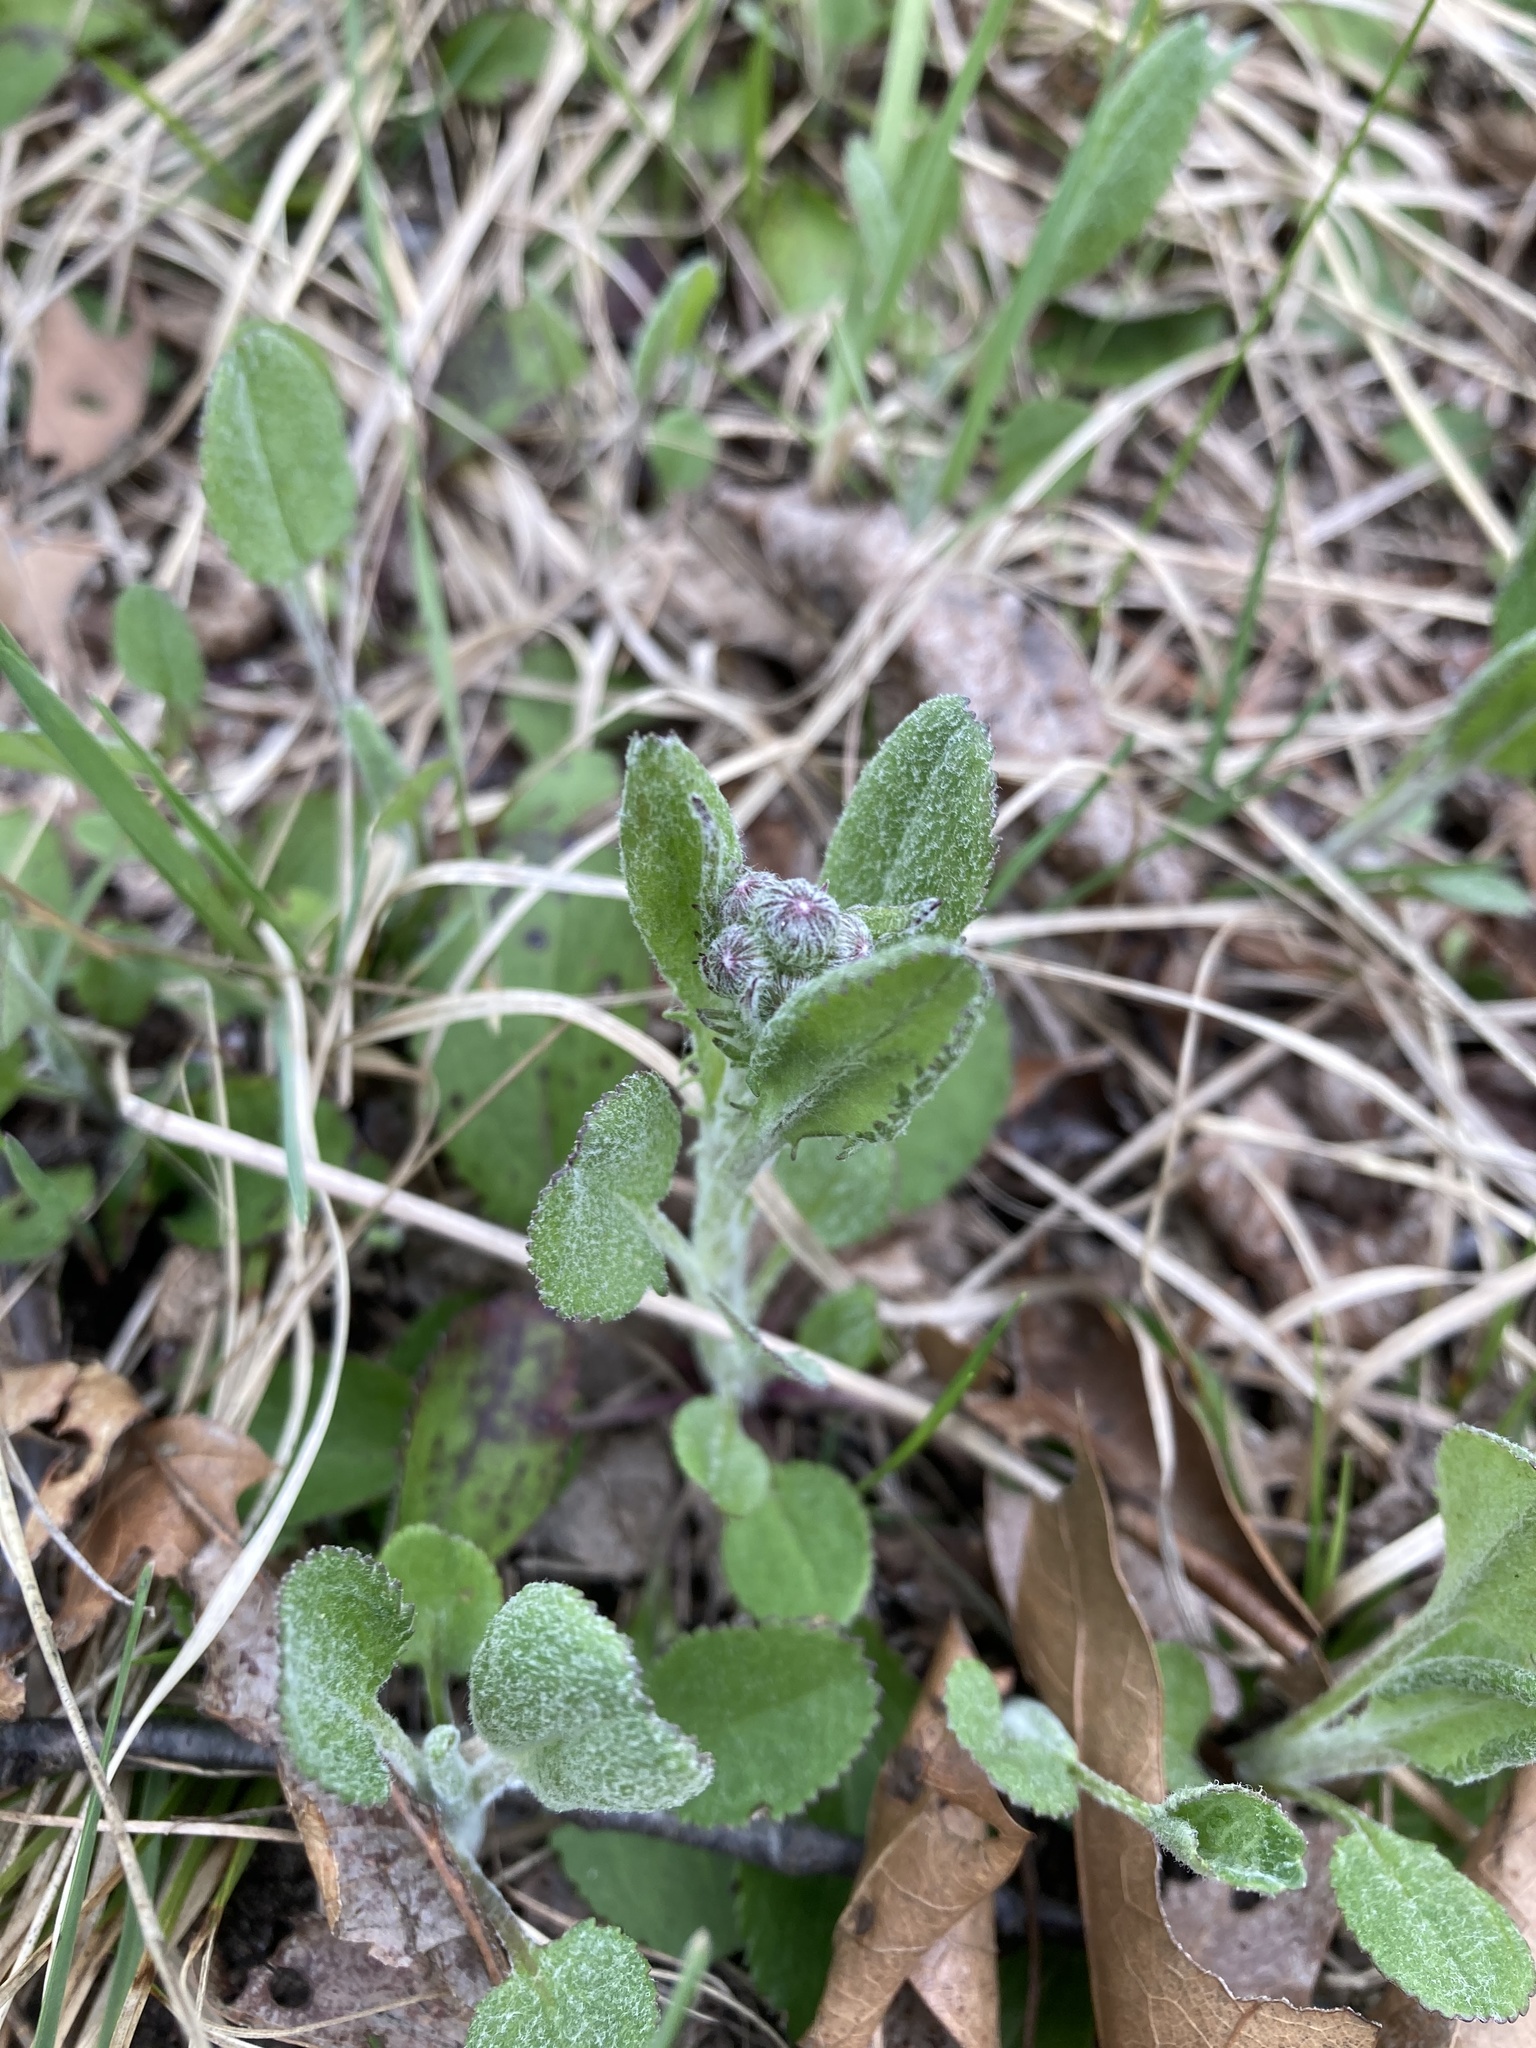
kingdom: Plantae
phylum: Tracheophyta
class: Magnoliopsida
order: Asterales
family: Asteraceae
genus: Packera
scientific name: Packera paupercula
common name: Balsam groundsel
